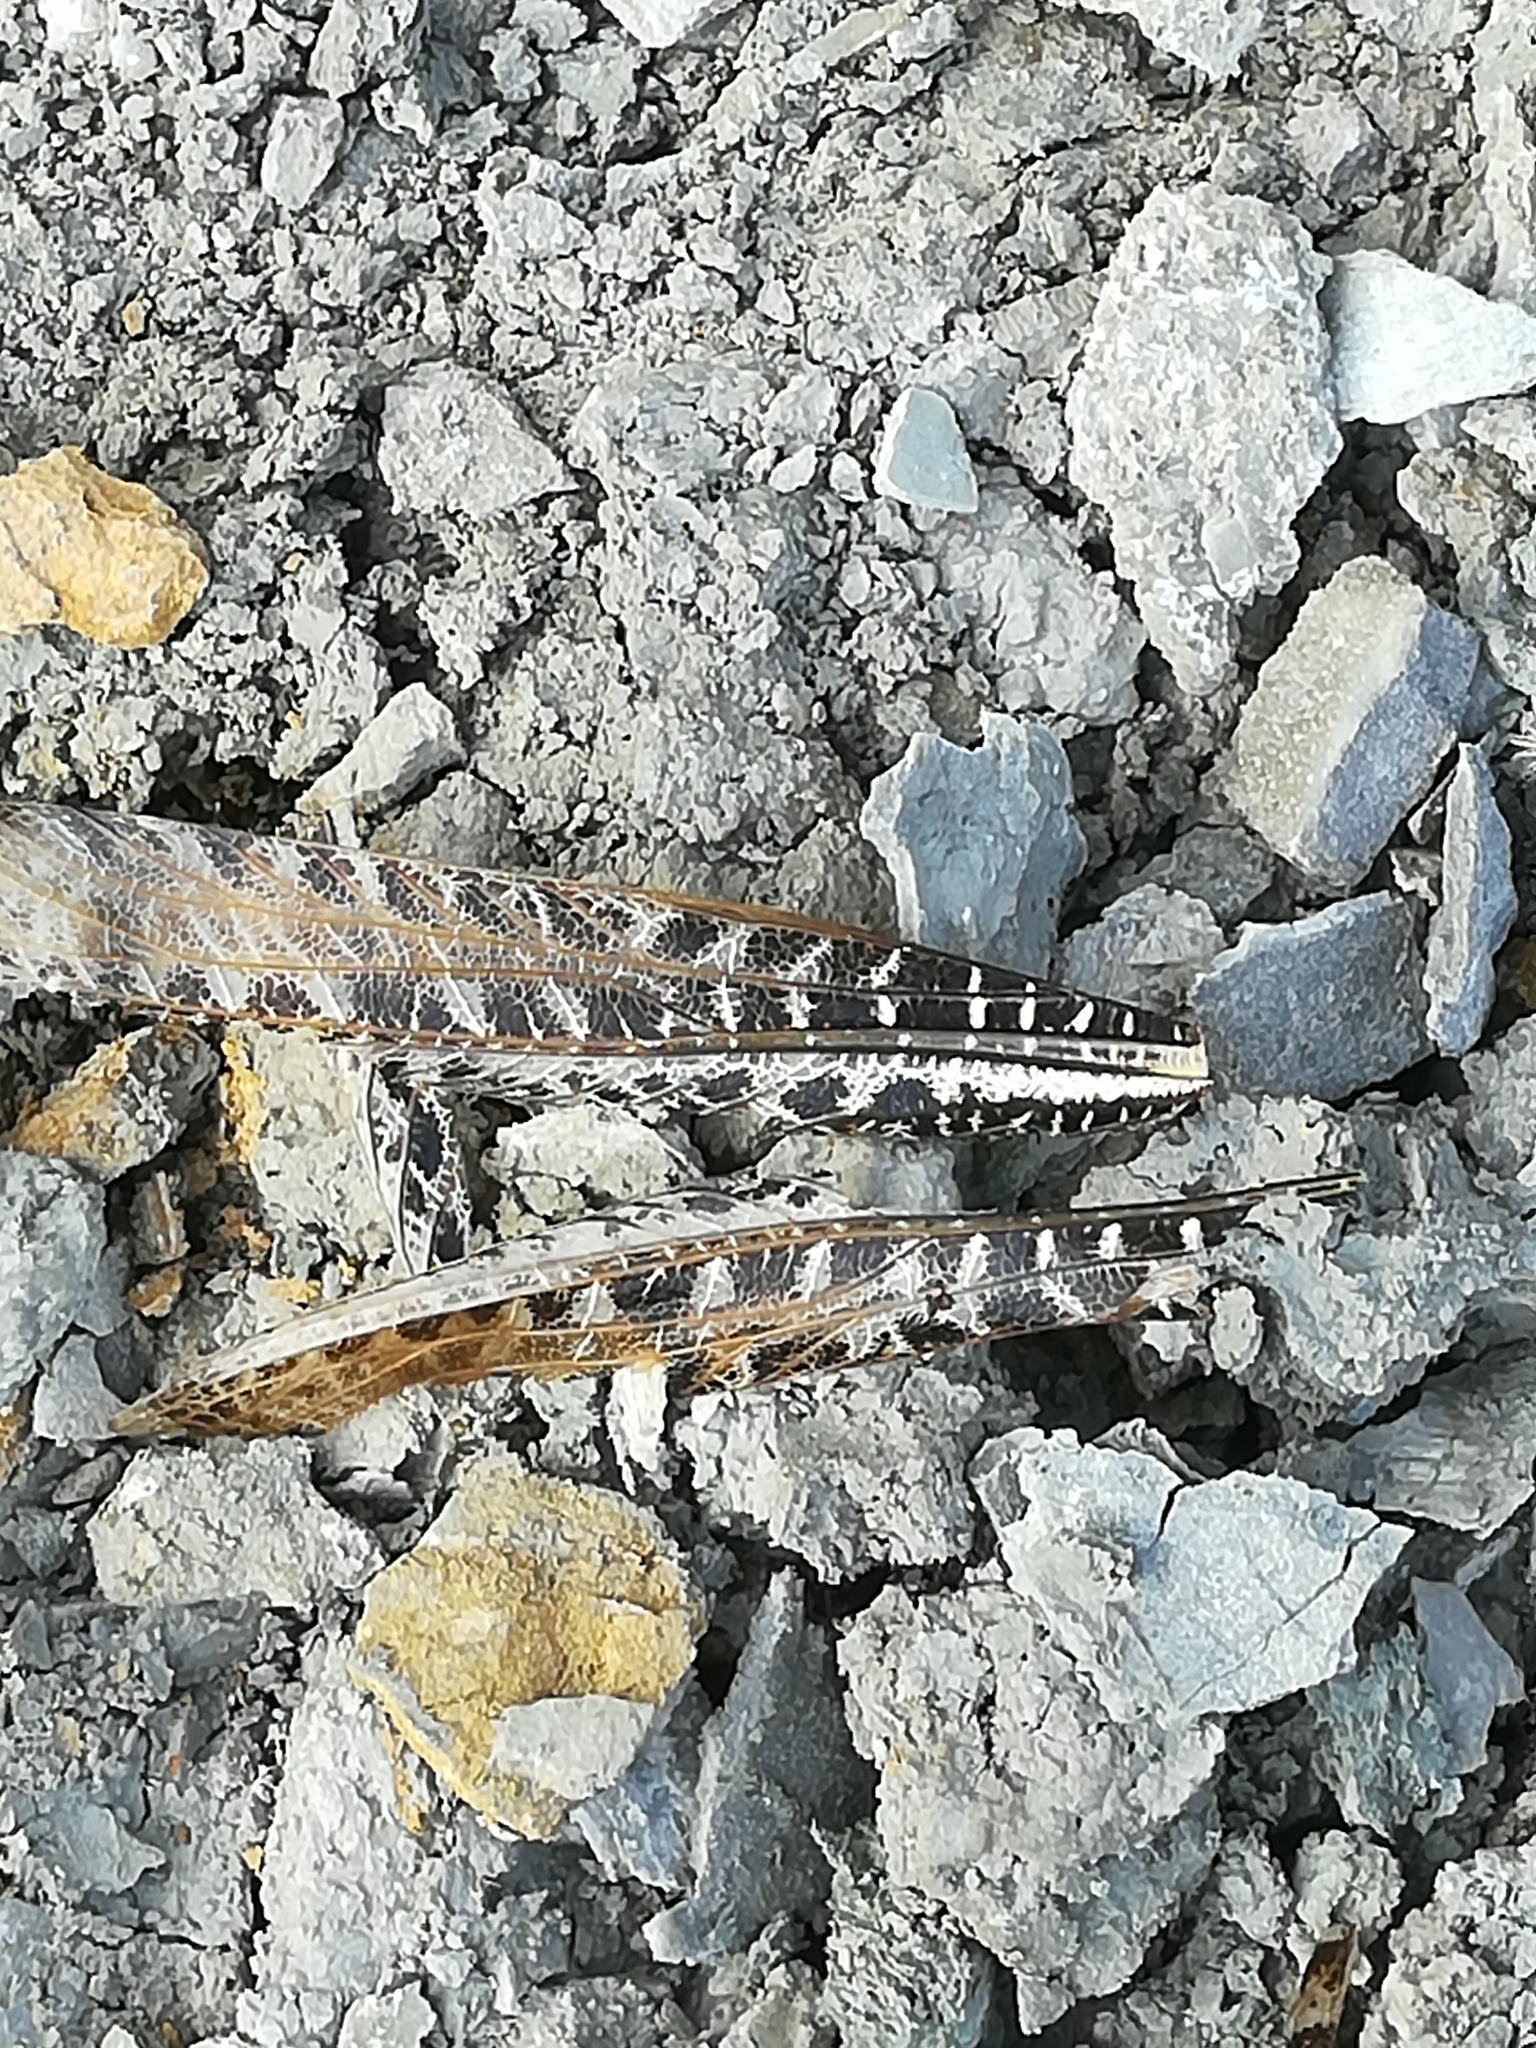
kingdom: Animalia
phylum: Arthropoda
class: Insecta
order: Orthoptera
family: Tettigoniidae
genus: Decticus
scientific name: Decticus albifrons
